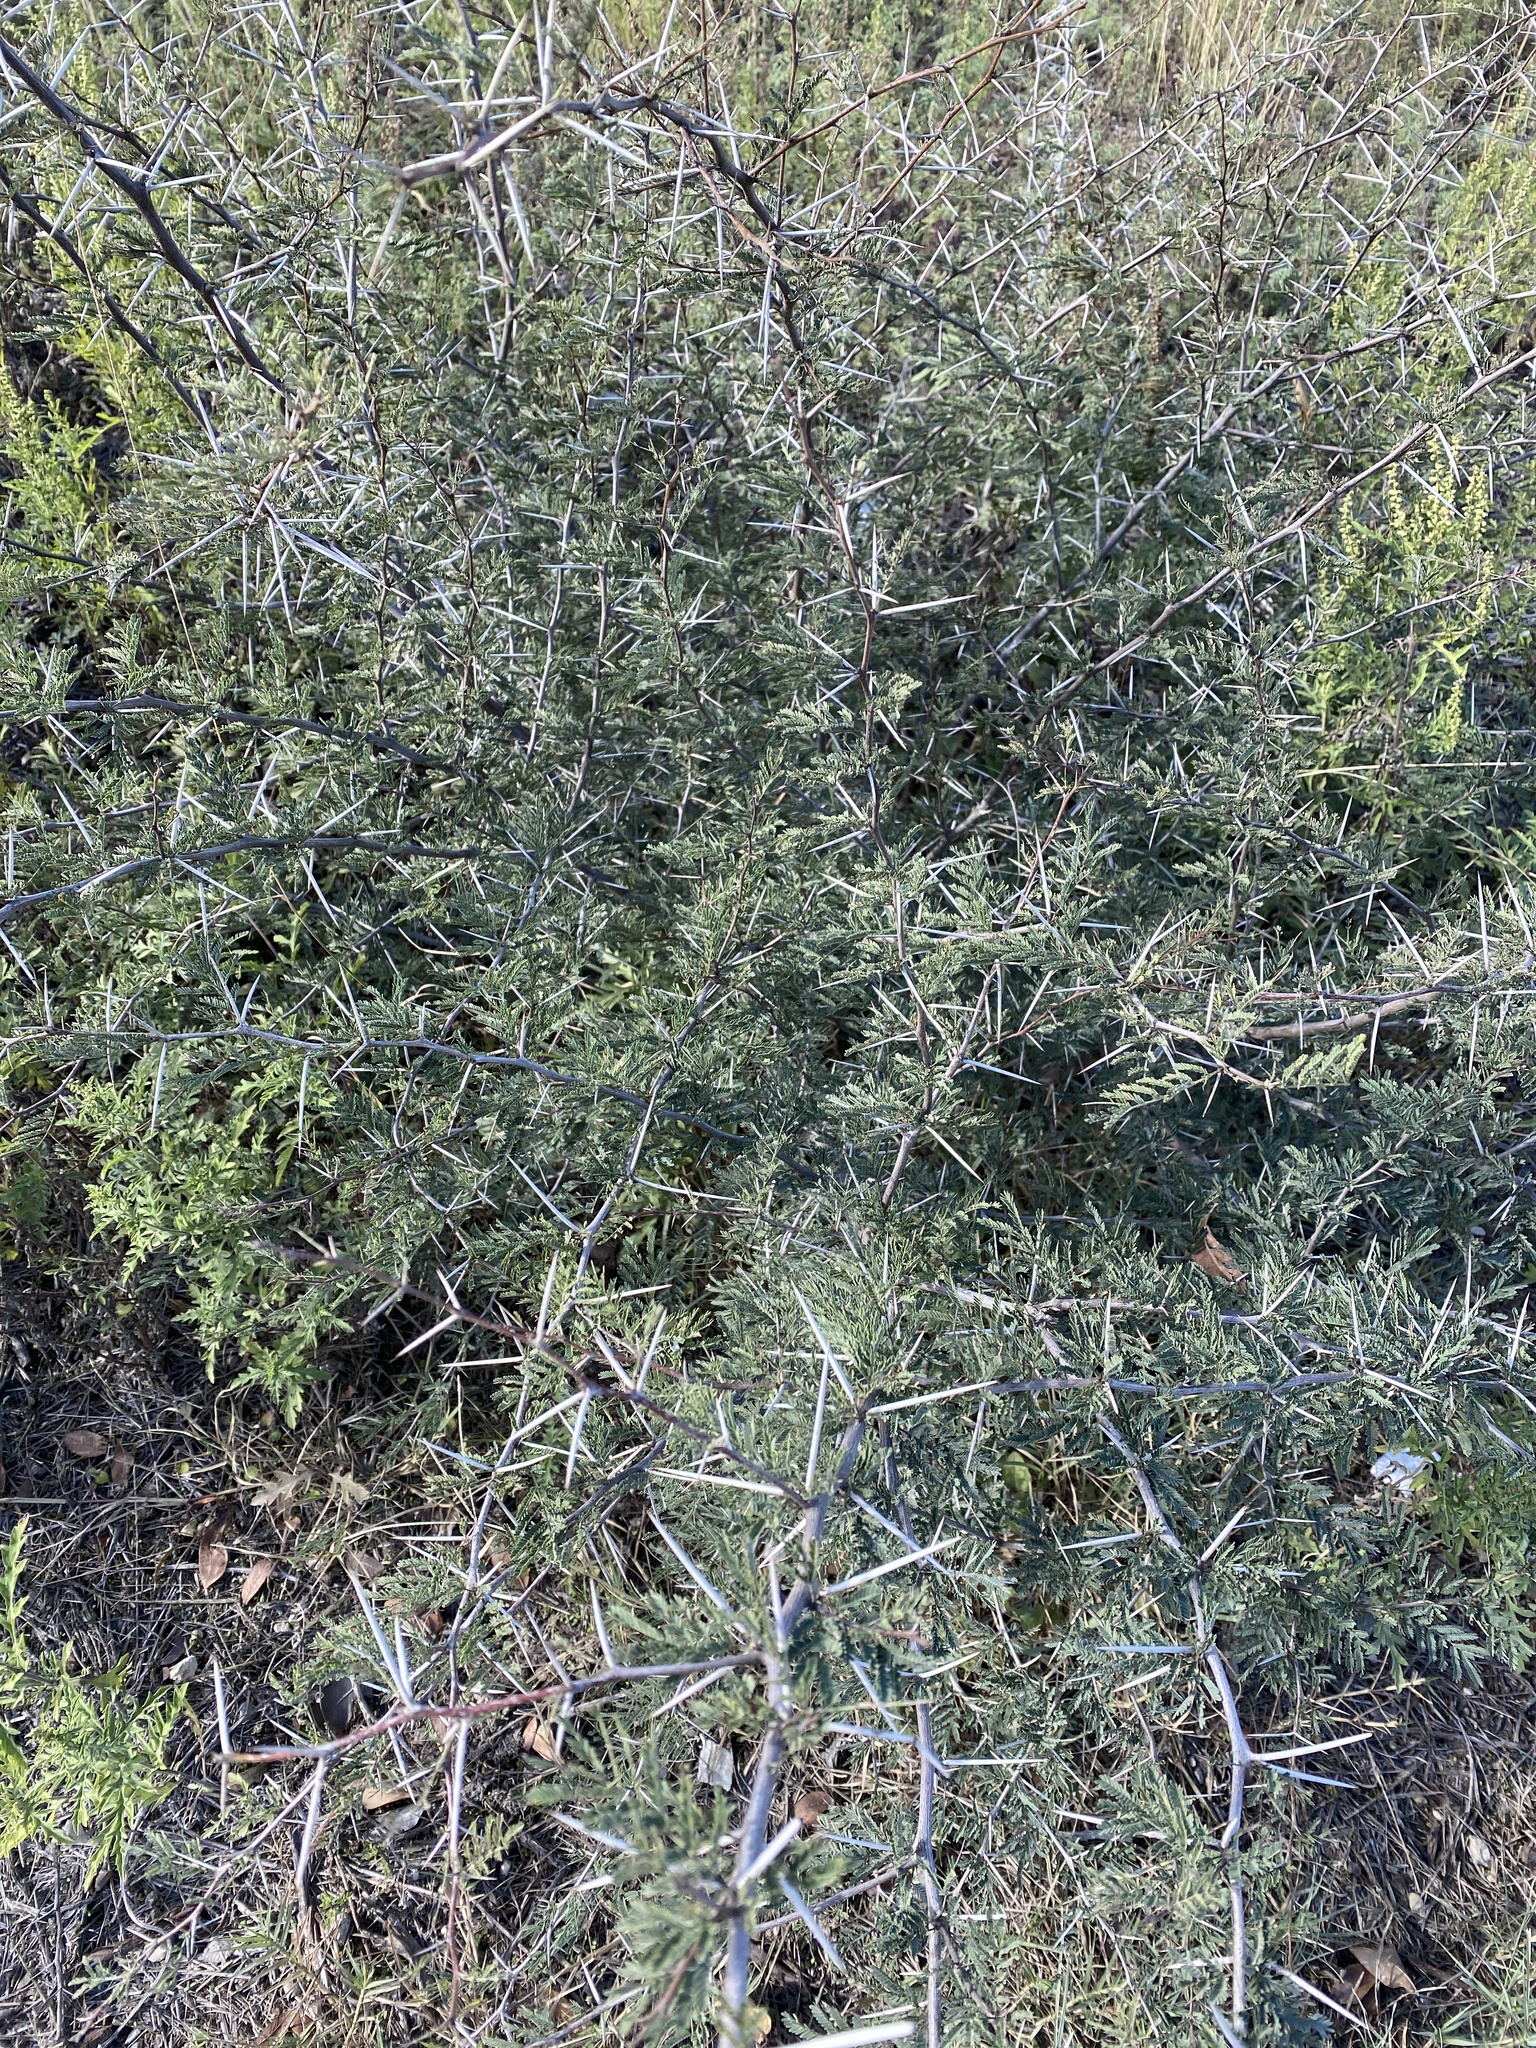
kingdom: Plantae
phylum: Tracheophyta
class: Magnoliopsida
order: Fabales
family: Fabaceae
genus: Vachellia
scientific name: Vachellia farnesiana
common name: Sweet acacia
